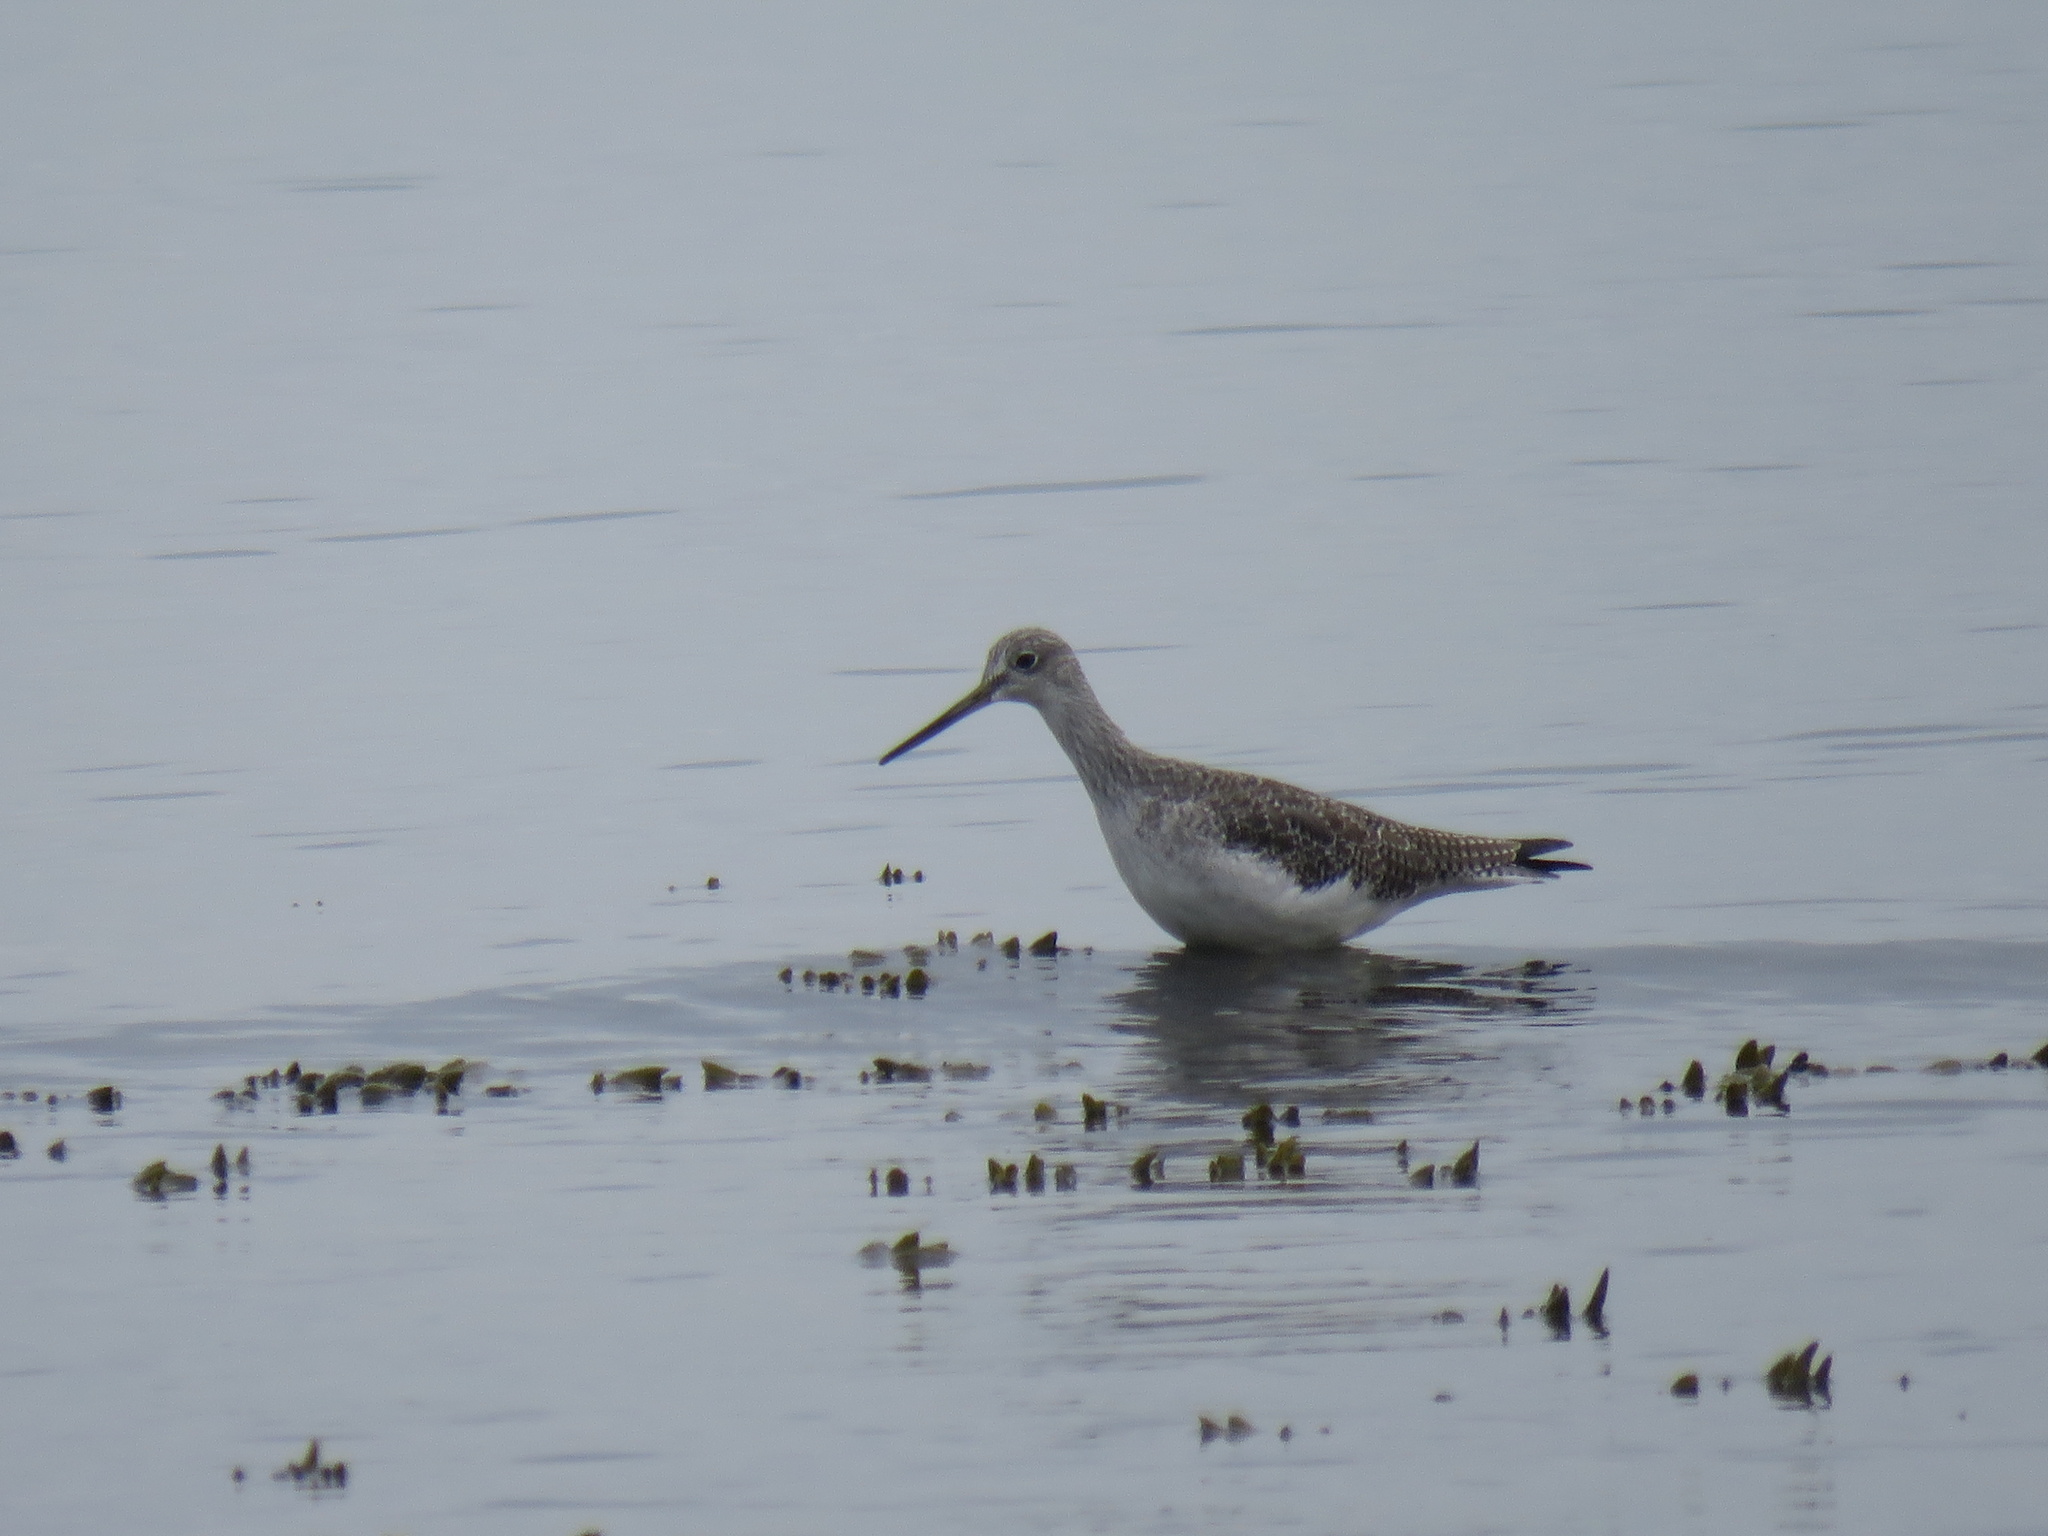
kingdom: Animalia
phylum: Chordata
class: Aves
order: Charadriiformes
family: Scolopacidae
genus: Tringa
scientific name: Tringa melanoleuca
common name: Greater yellowlegs
